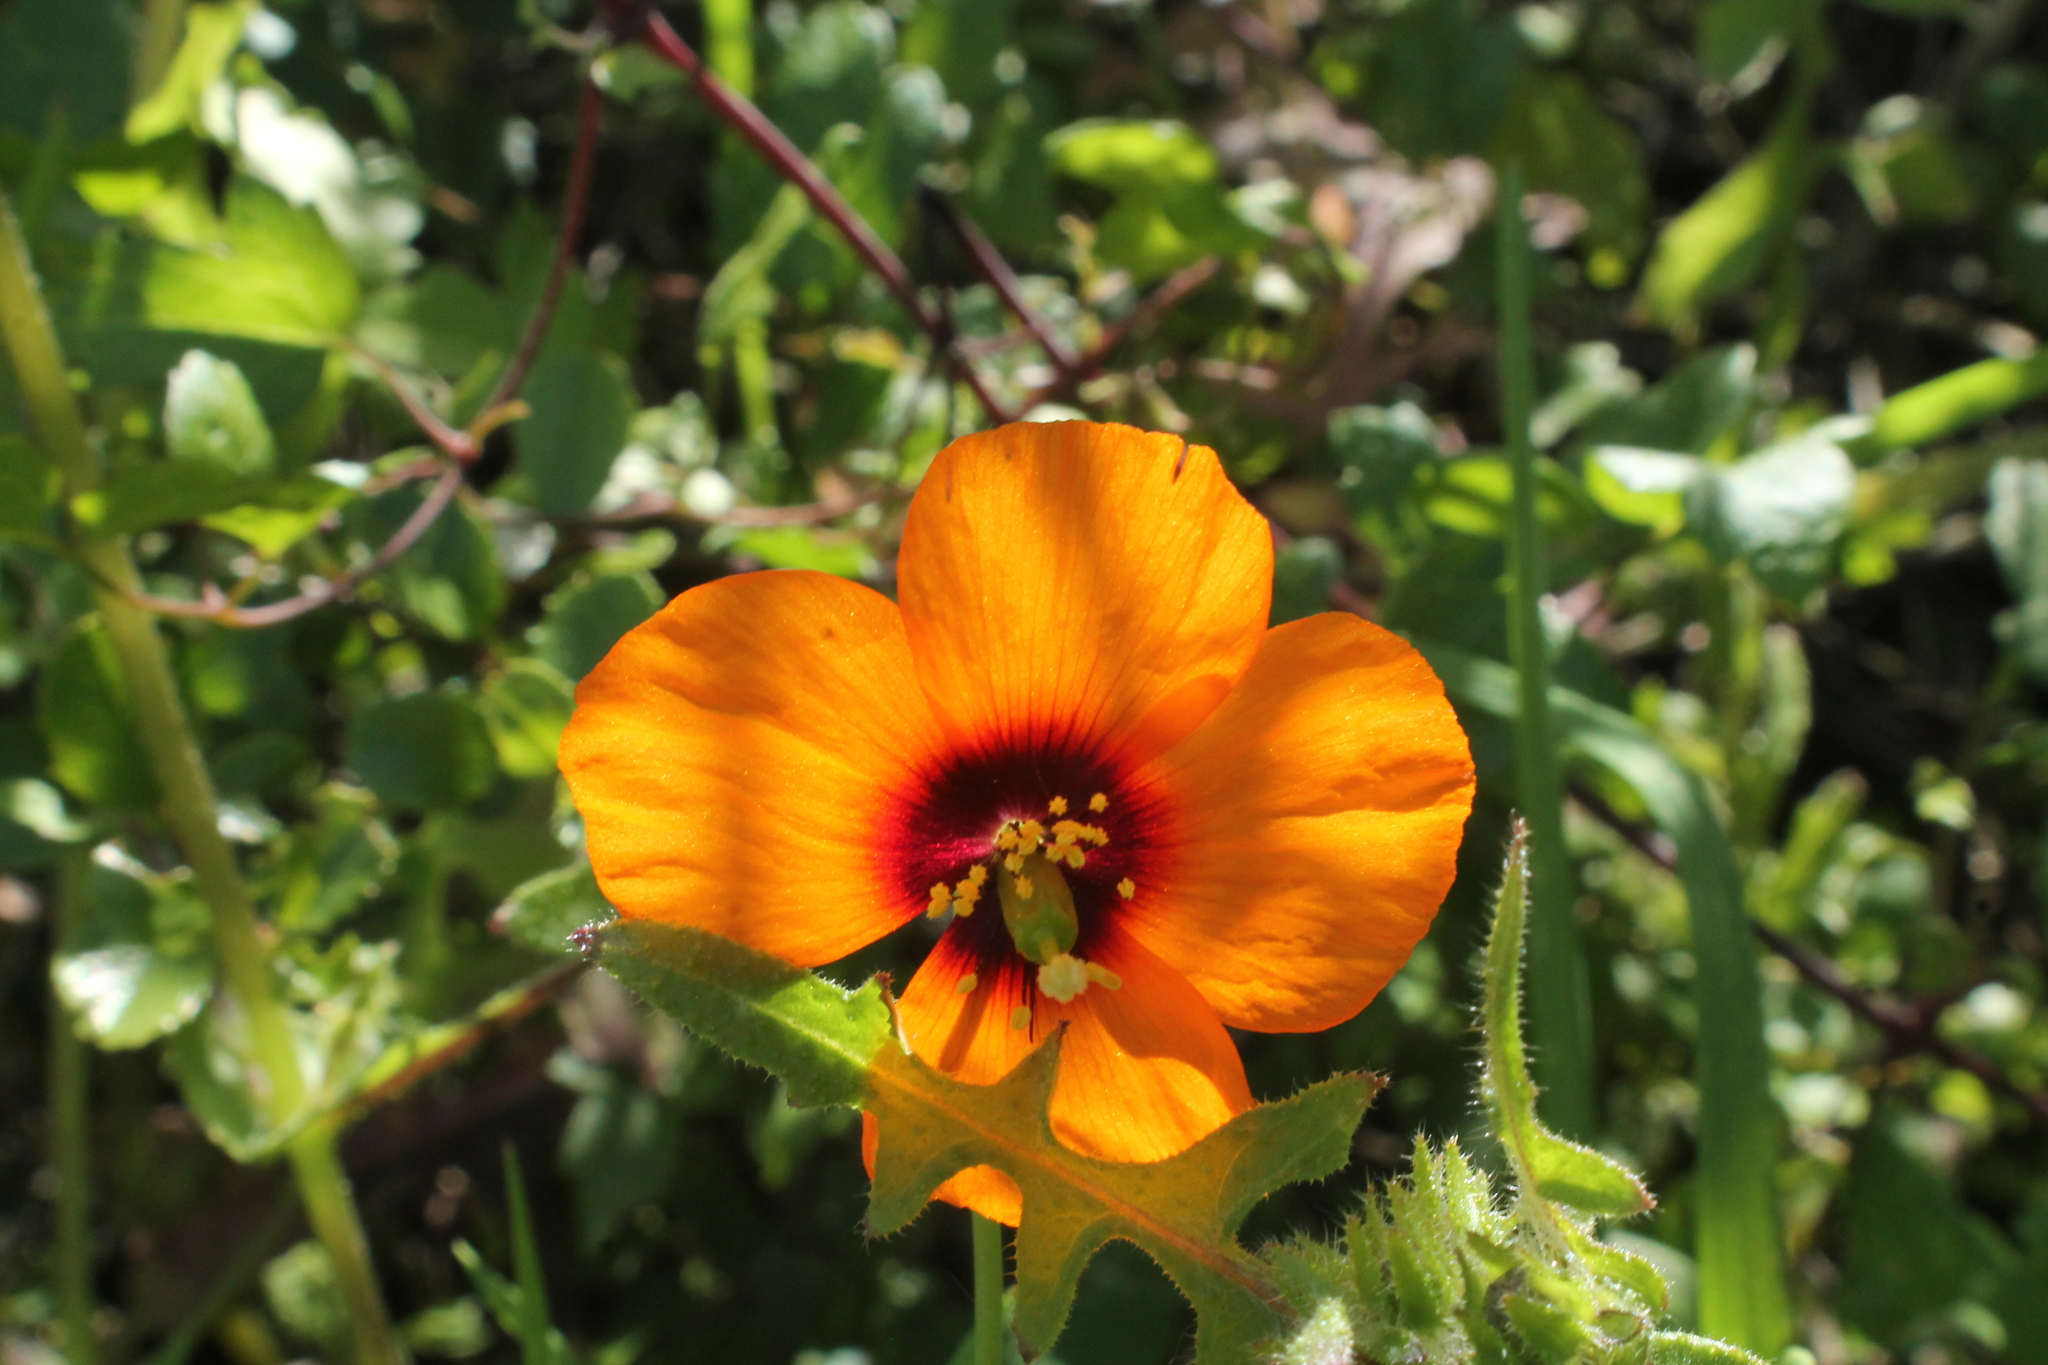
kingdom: Plantae
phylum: Tracheophyta
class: Magnoliopsida
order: Ranunculales
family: Papaveraceae
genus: Stylomecon
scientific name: Stylomecon heterophylla
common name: Flaming-poppy
